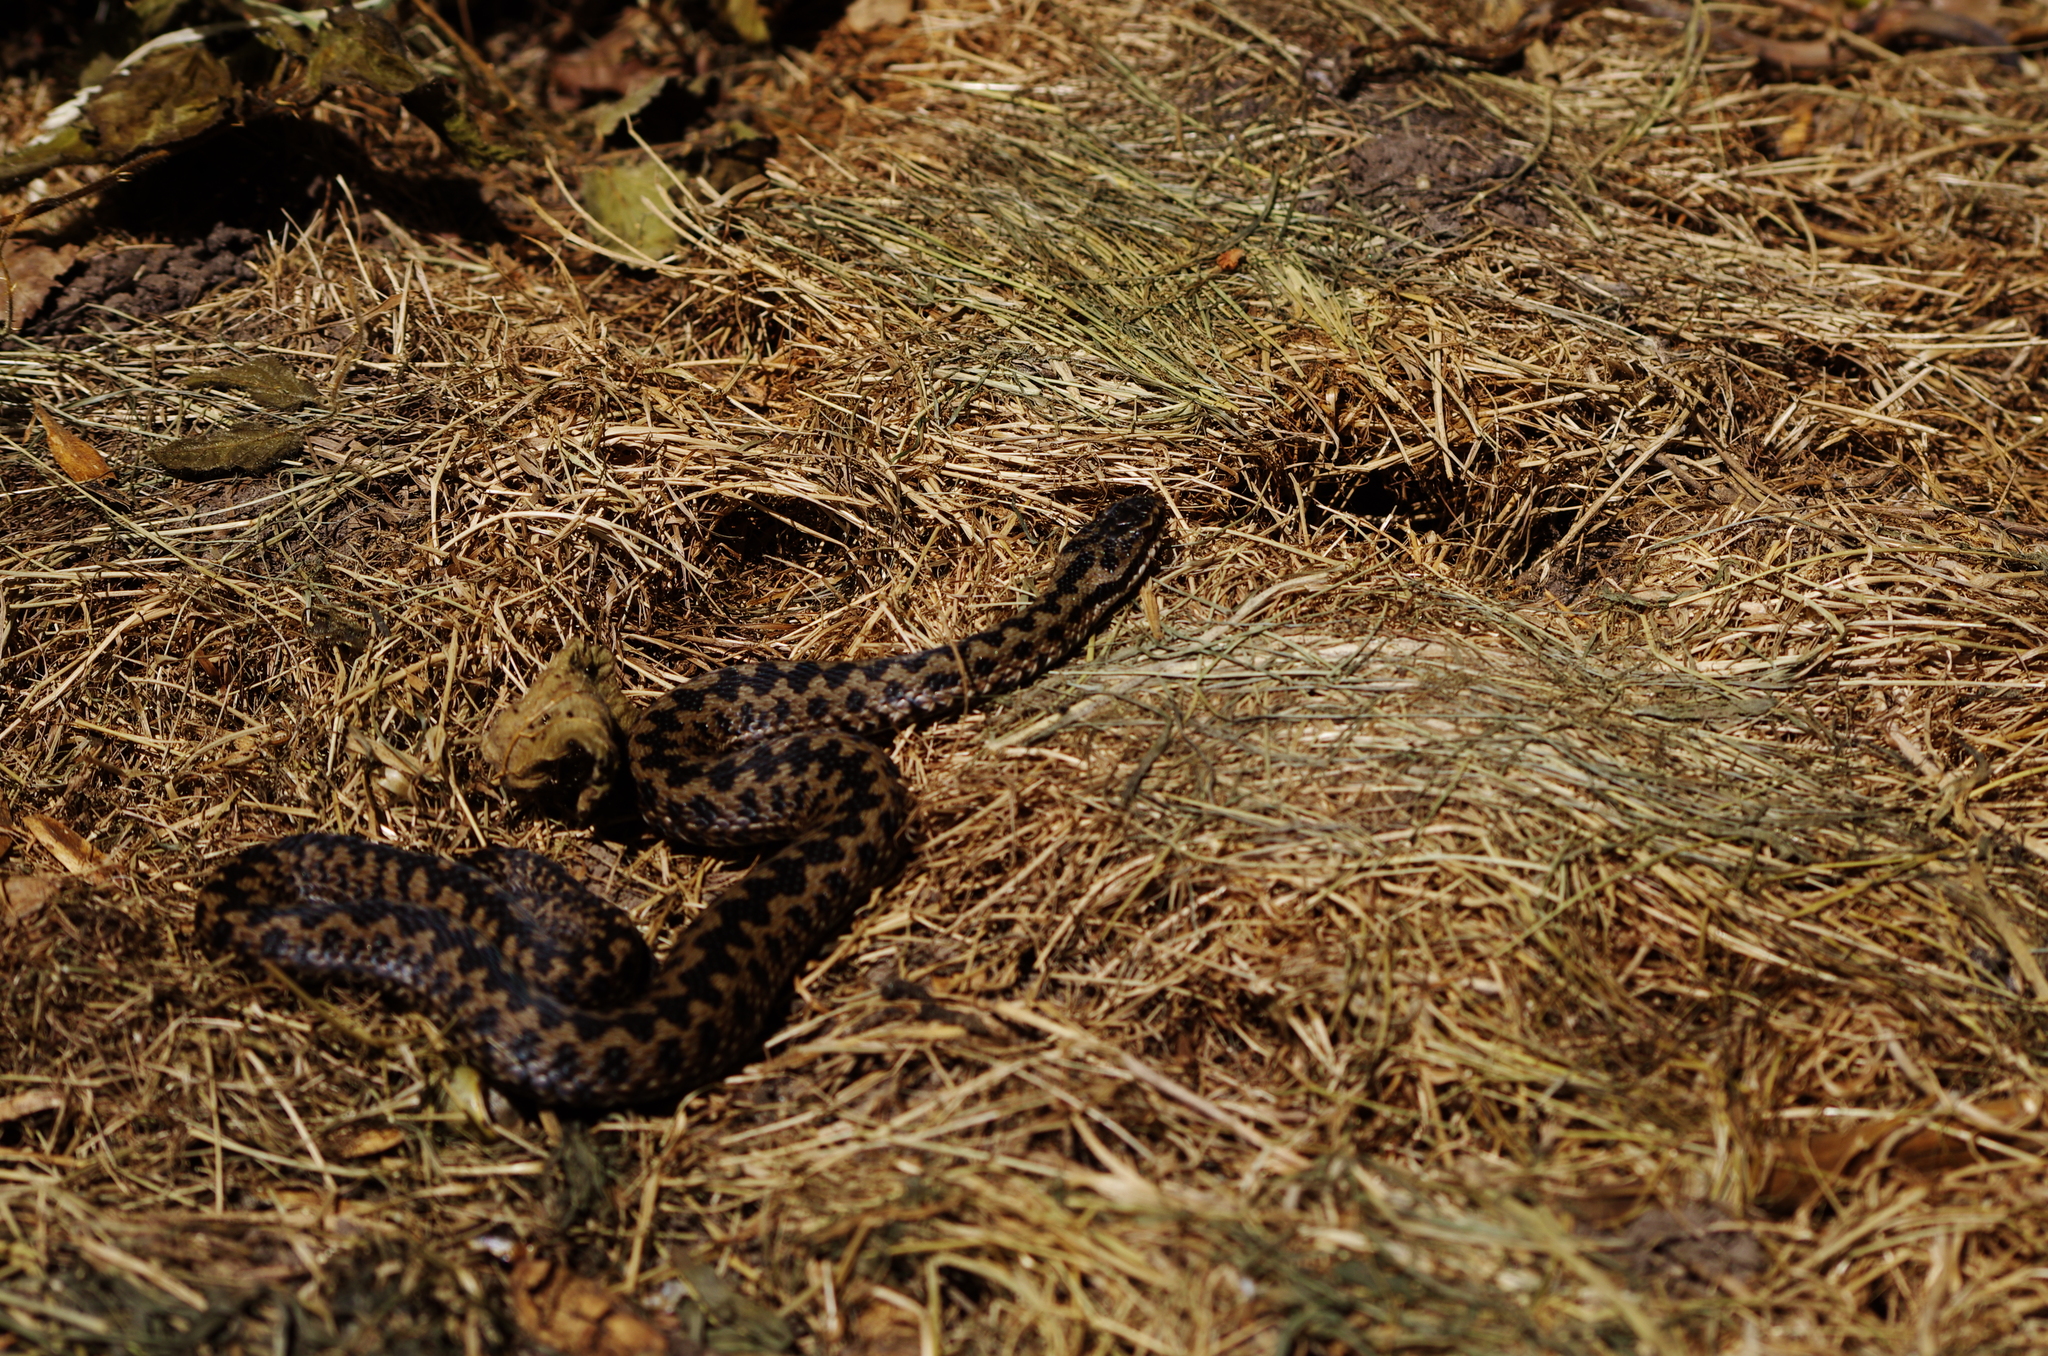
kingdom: Animalia
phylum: Chordata
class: Squamata
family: Viperidae
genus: Vipera
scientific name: Vipera berus
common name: Adder
